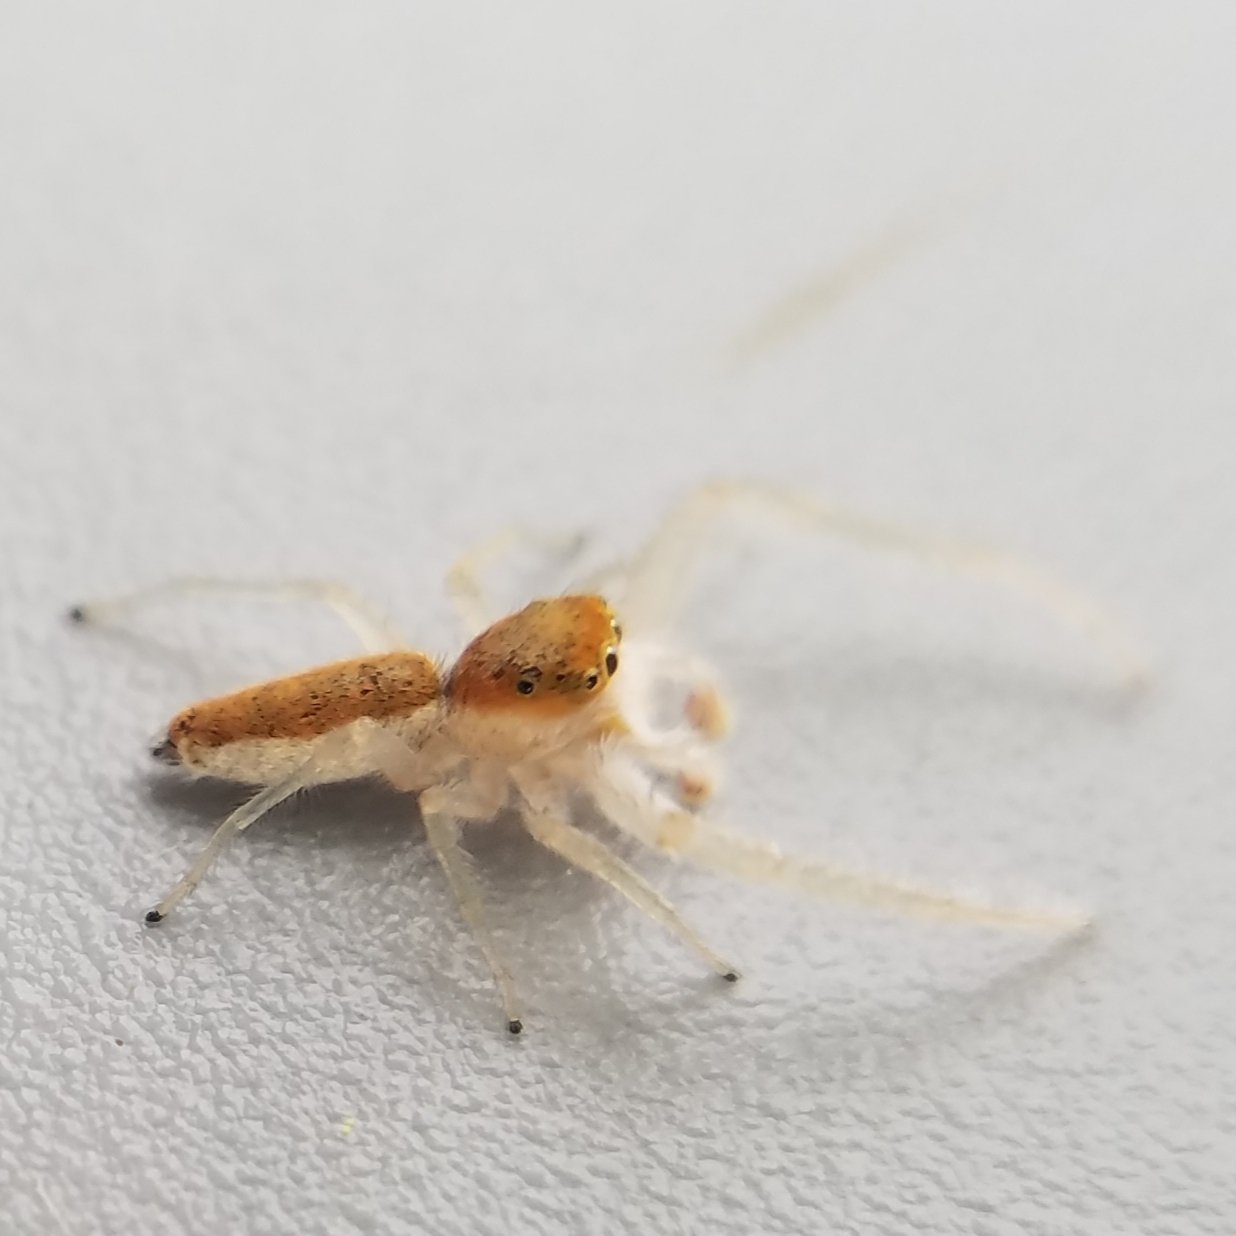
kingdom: Animalia
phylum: Arthropoda
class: Arachnida
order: Araneae
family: Salticidae
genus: Hentzia
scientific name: Hentzia mitrata
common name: White-jawed jumping spider
